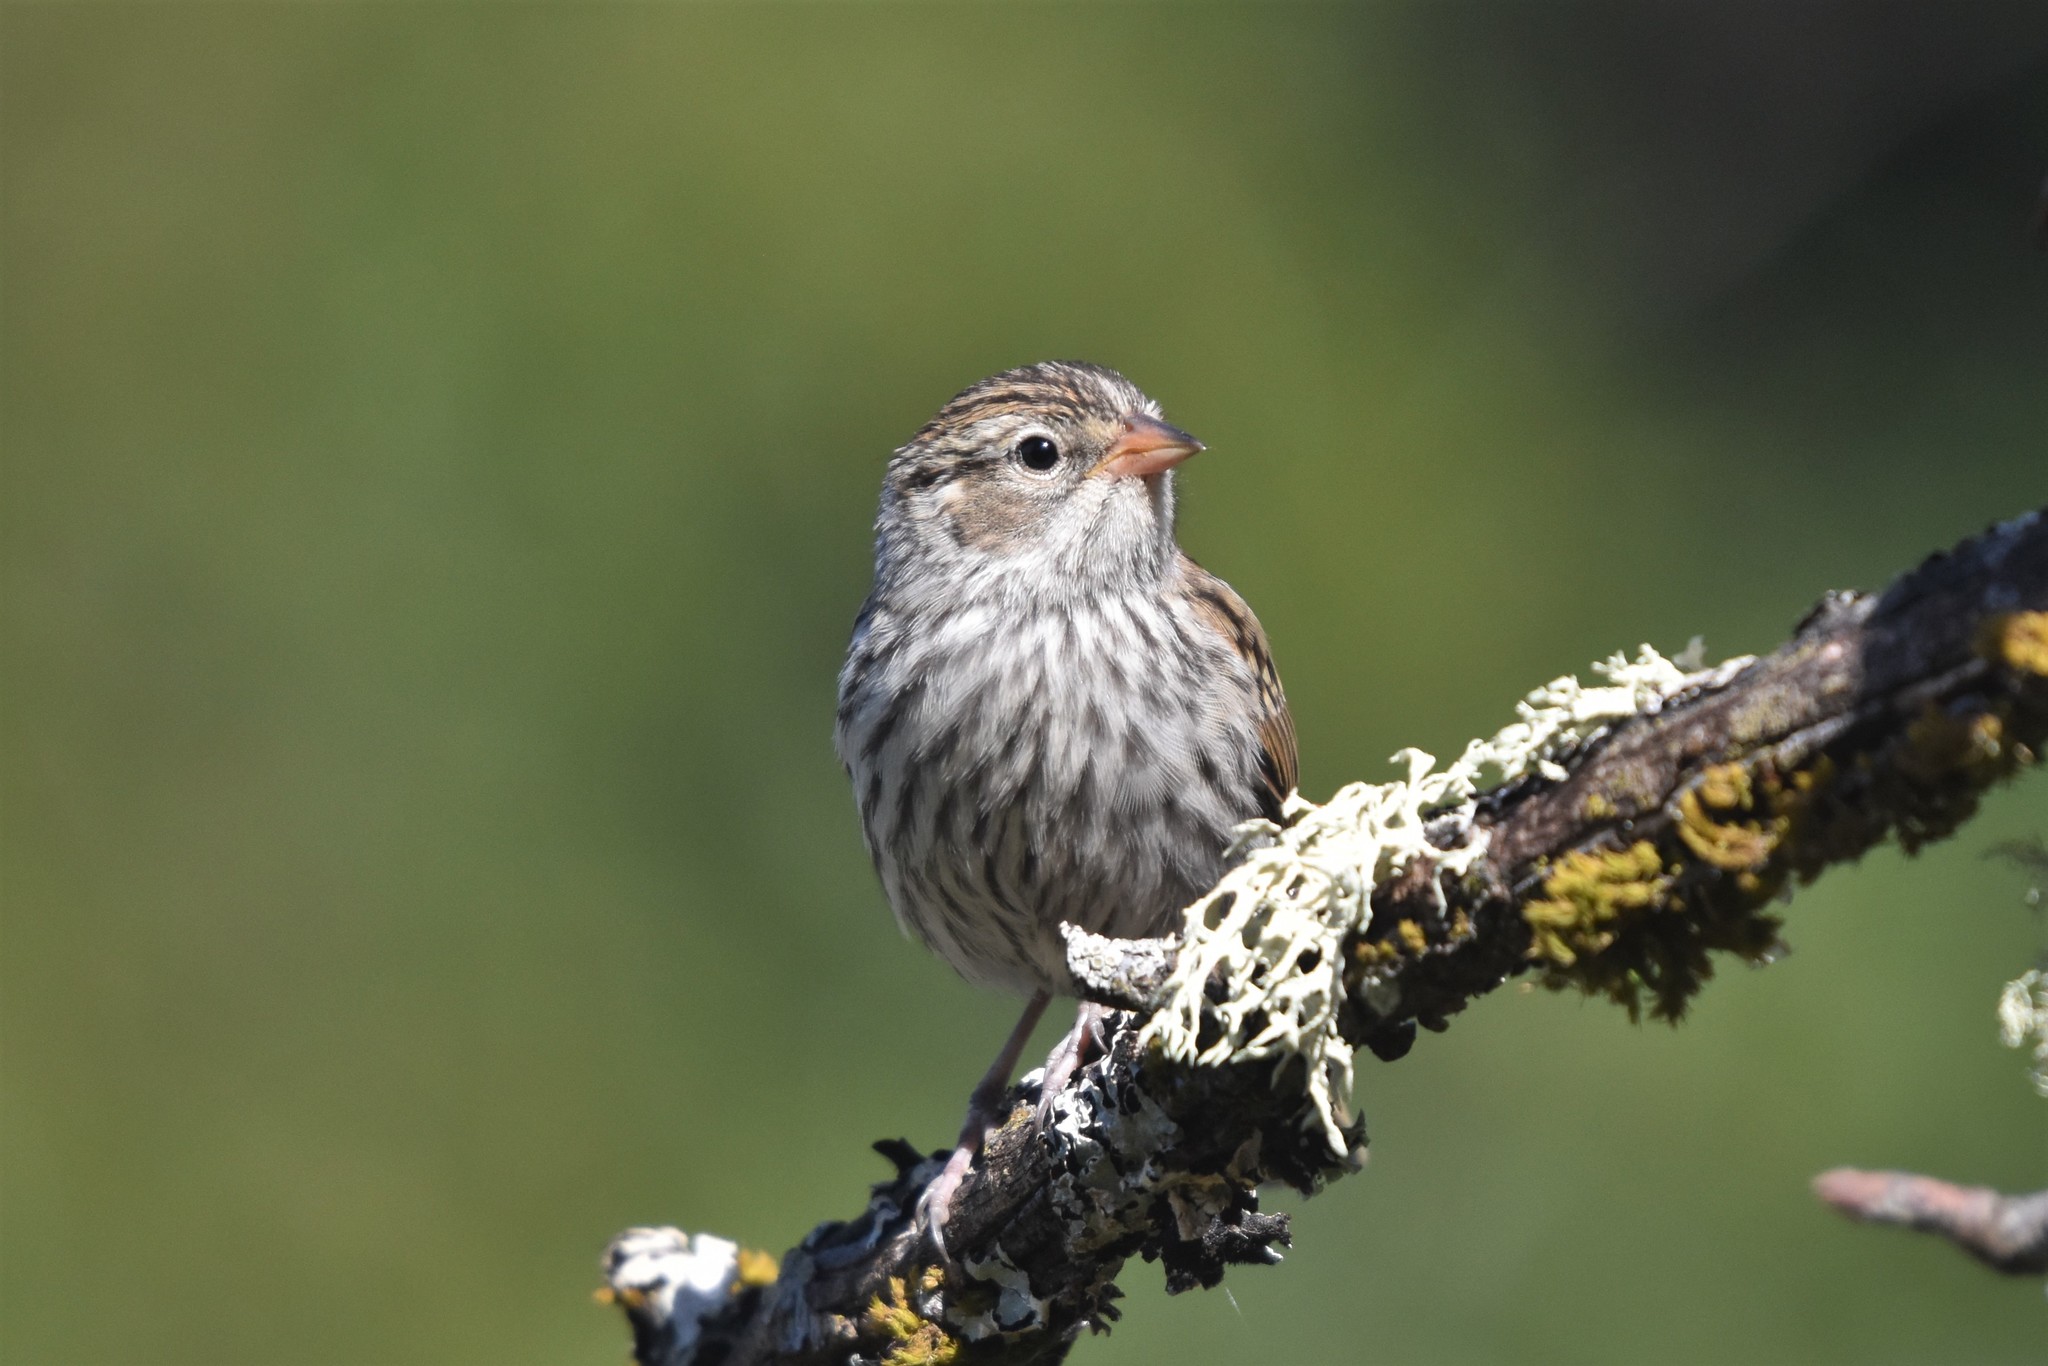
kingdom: Animalia
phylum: Chordata
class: Aves
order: Passeriformes
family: Passerellidae
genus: Spizella
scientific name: Spizella passerina
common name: Chipping sparrow
